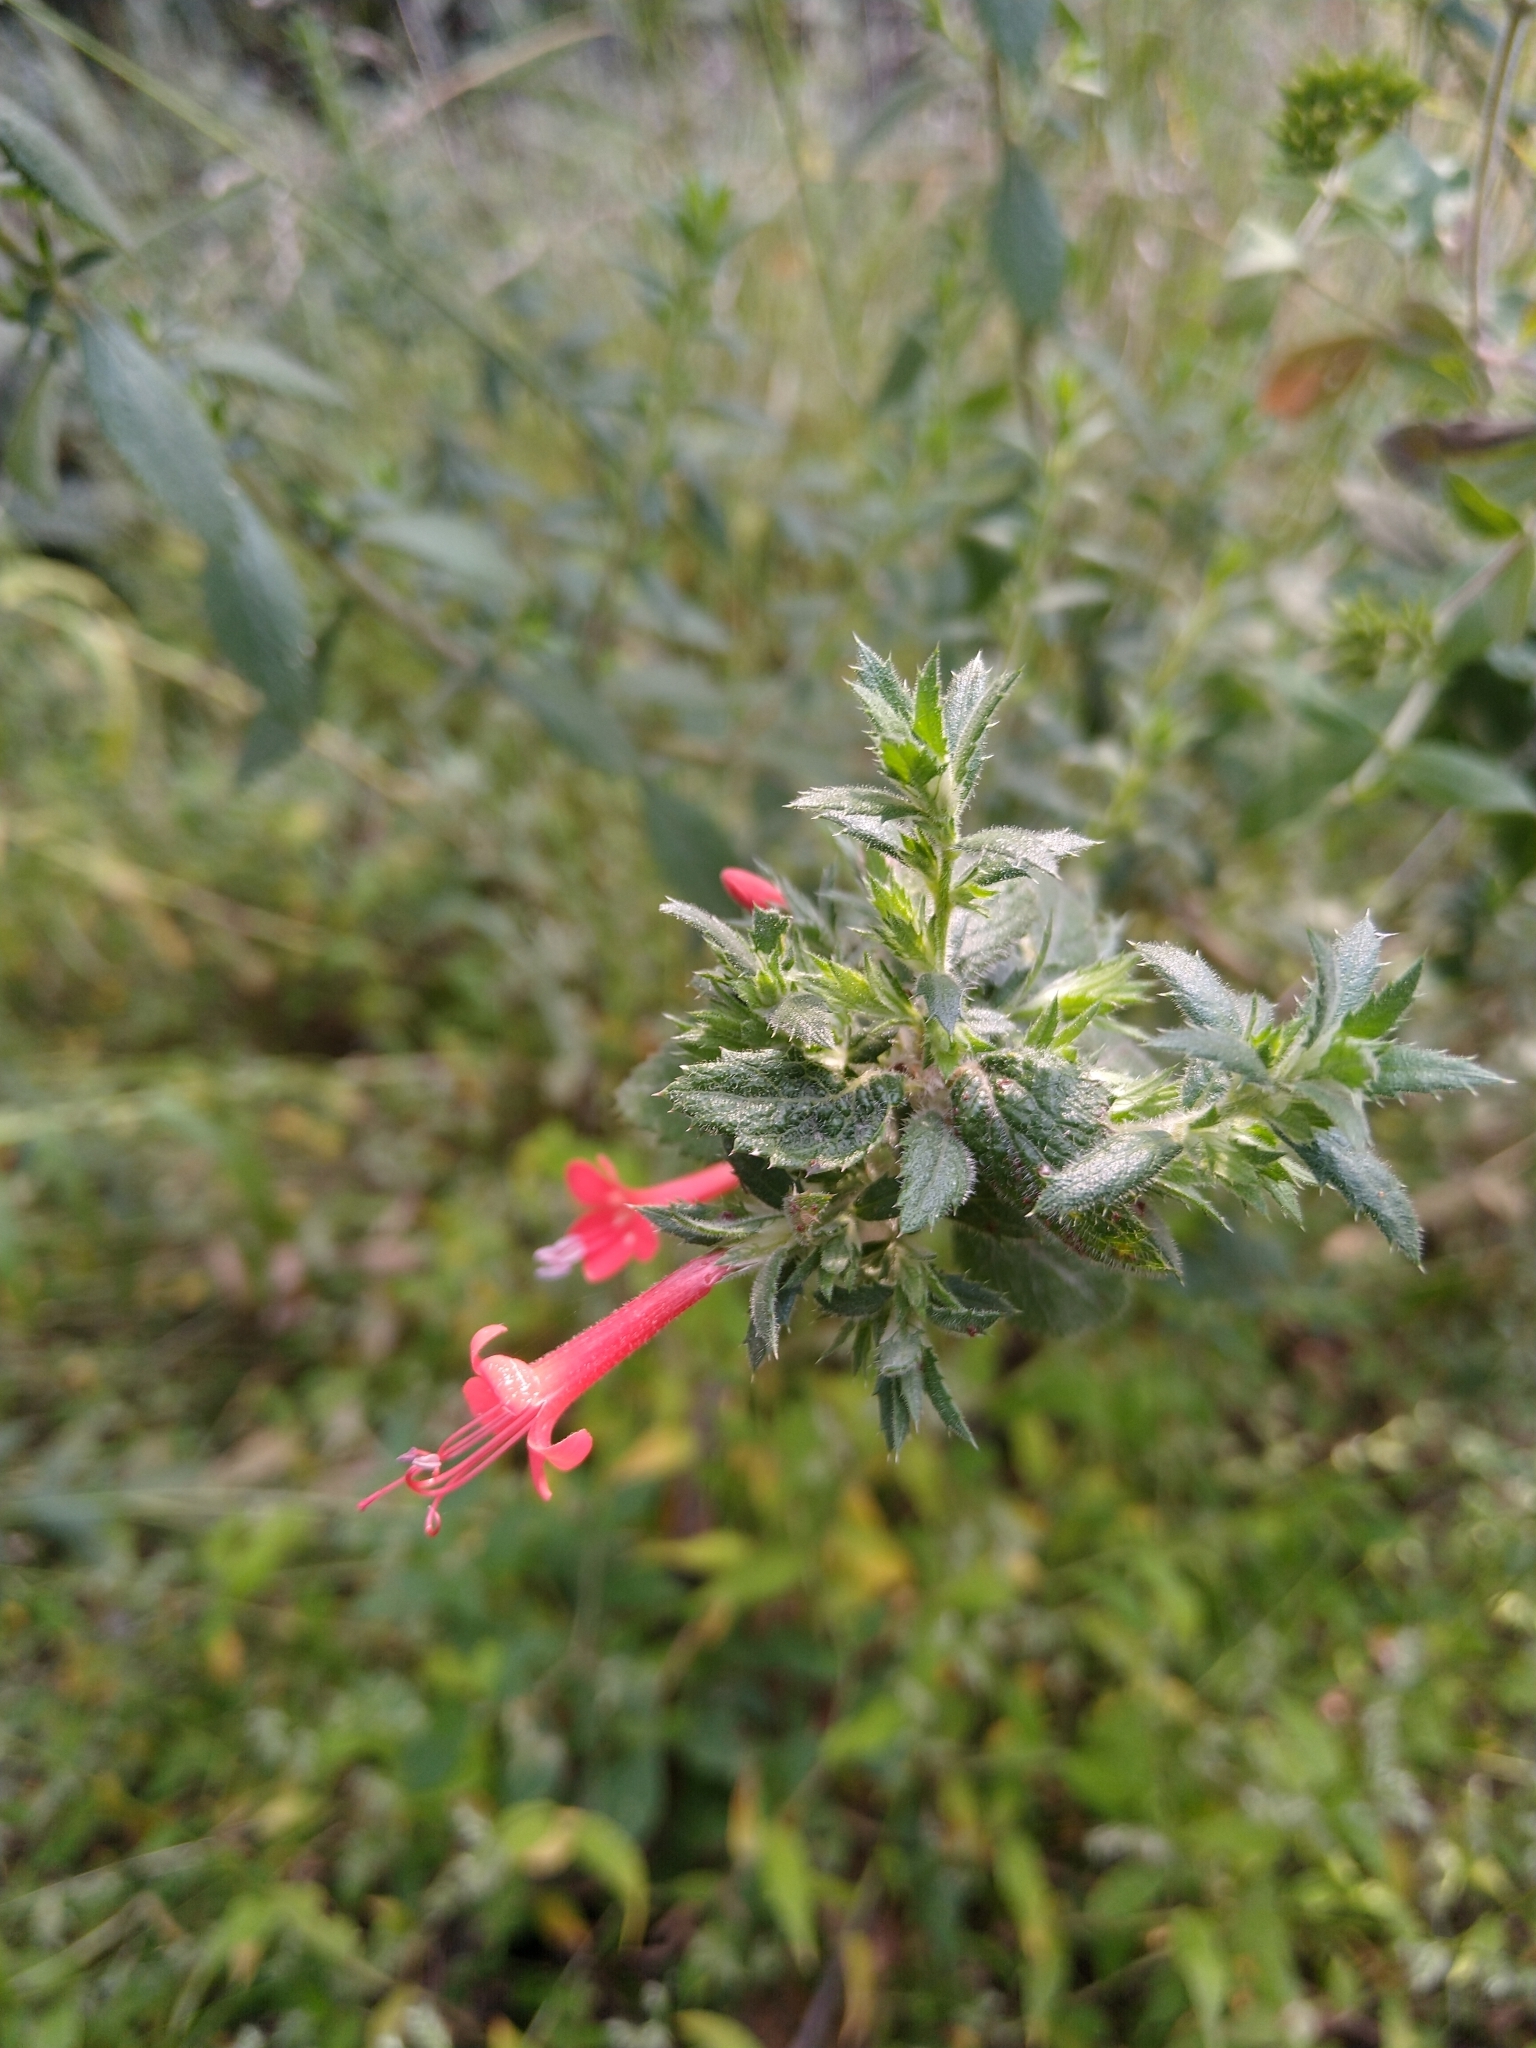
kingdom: Plantae
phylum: Tracheophyta
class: Magnoliopsida
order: Ericales
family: Polemoniaceae
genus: Loeselia
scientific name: Loeselia mexicana
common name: Mexican false calico
